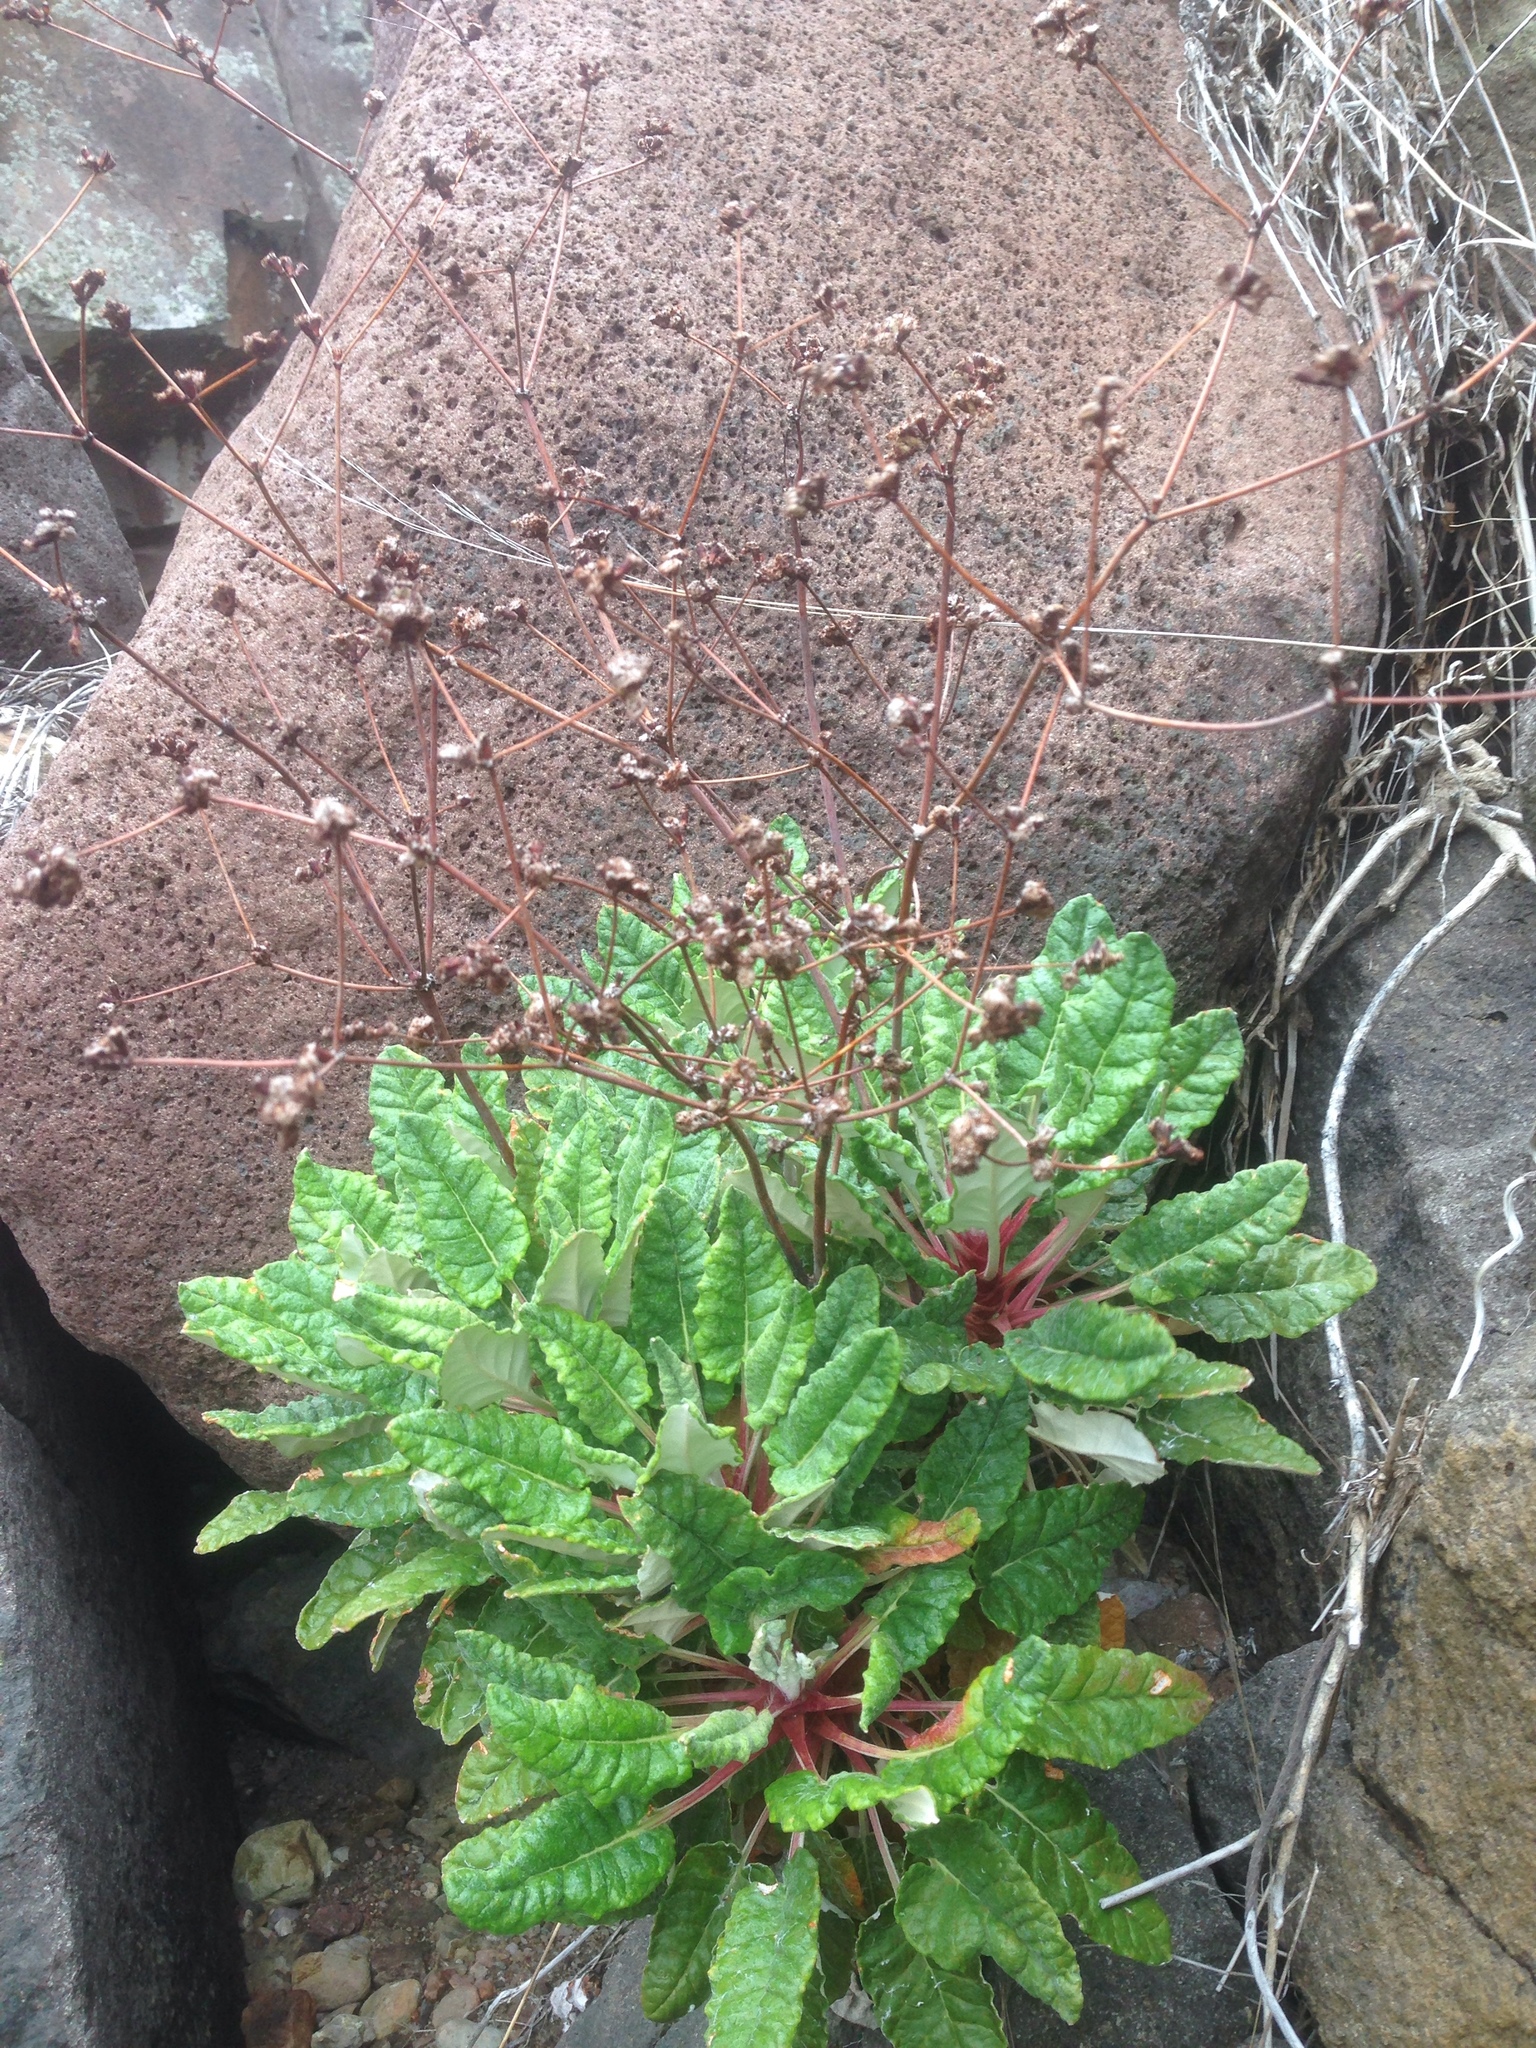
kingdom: Plantae
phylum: Tracheophyta
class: Magnoliopsida
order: Caryophyllales
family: Polygonaceae
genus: Eriogonum
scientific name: Eriogonum grande
